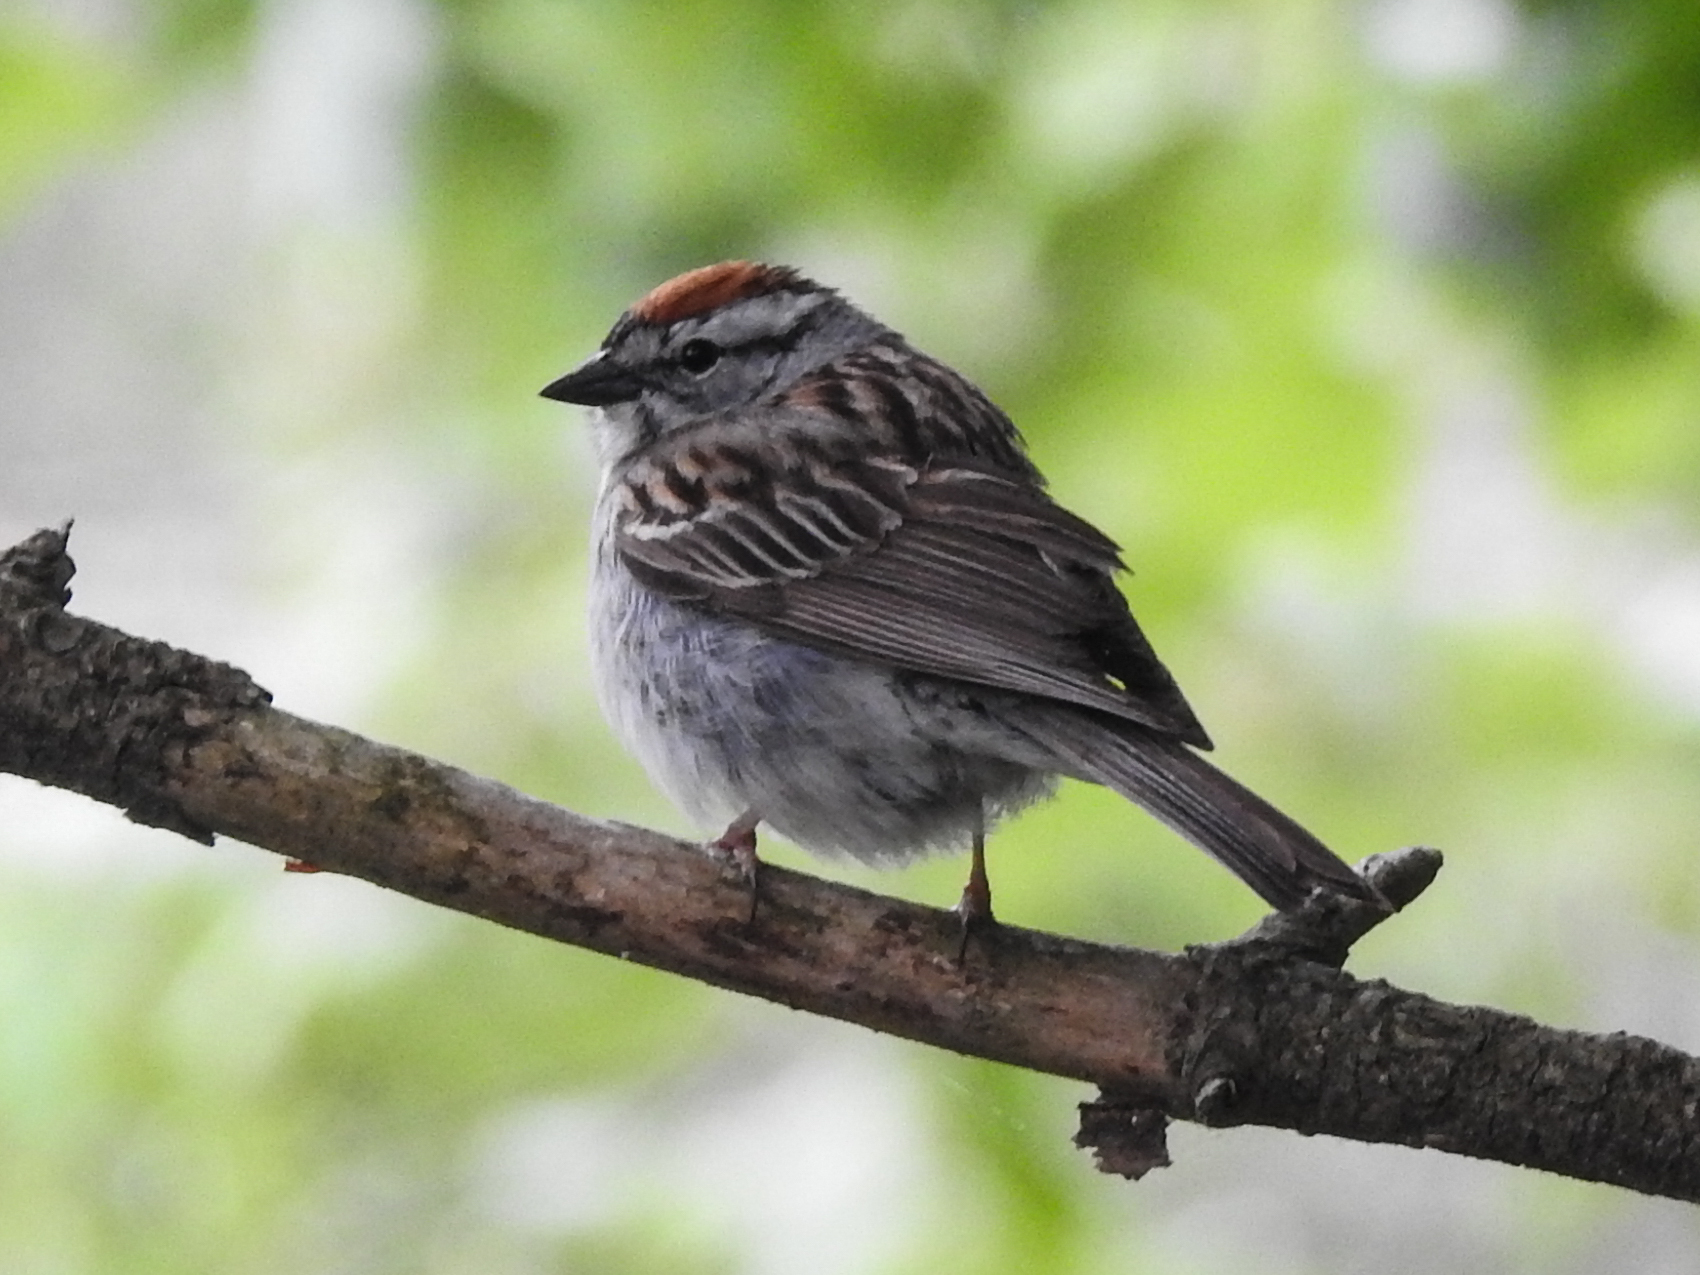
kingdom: Animalia
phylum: Chordata
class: Aves
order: Passeriformes
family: Passerellidae
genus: Spizella
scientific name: Spizella passerina
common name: Chipping sparrow
